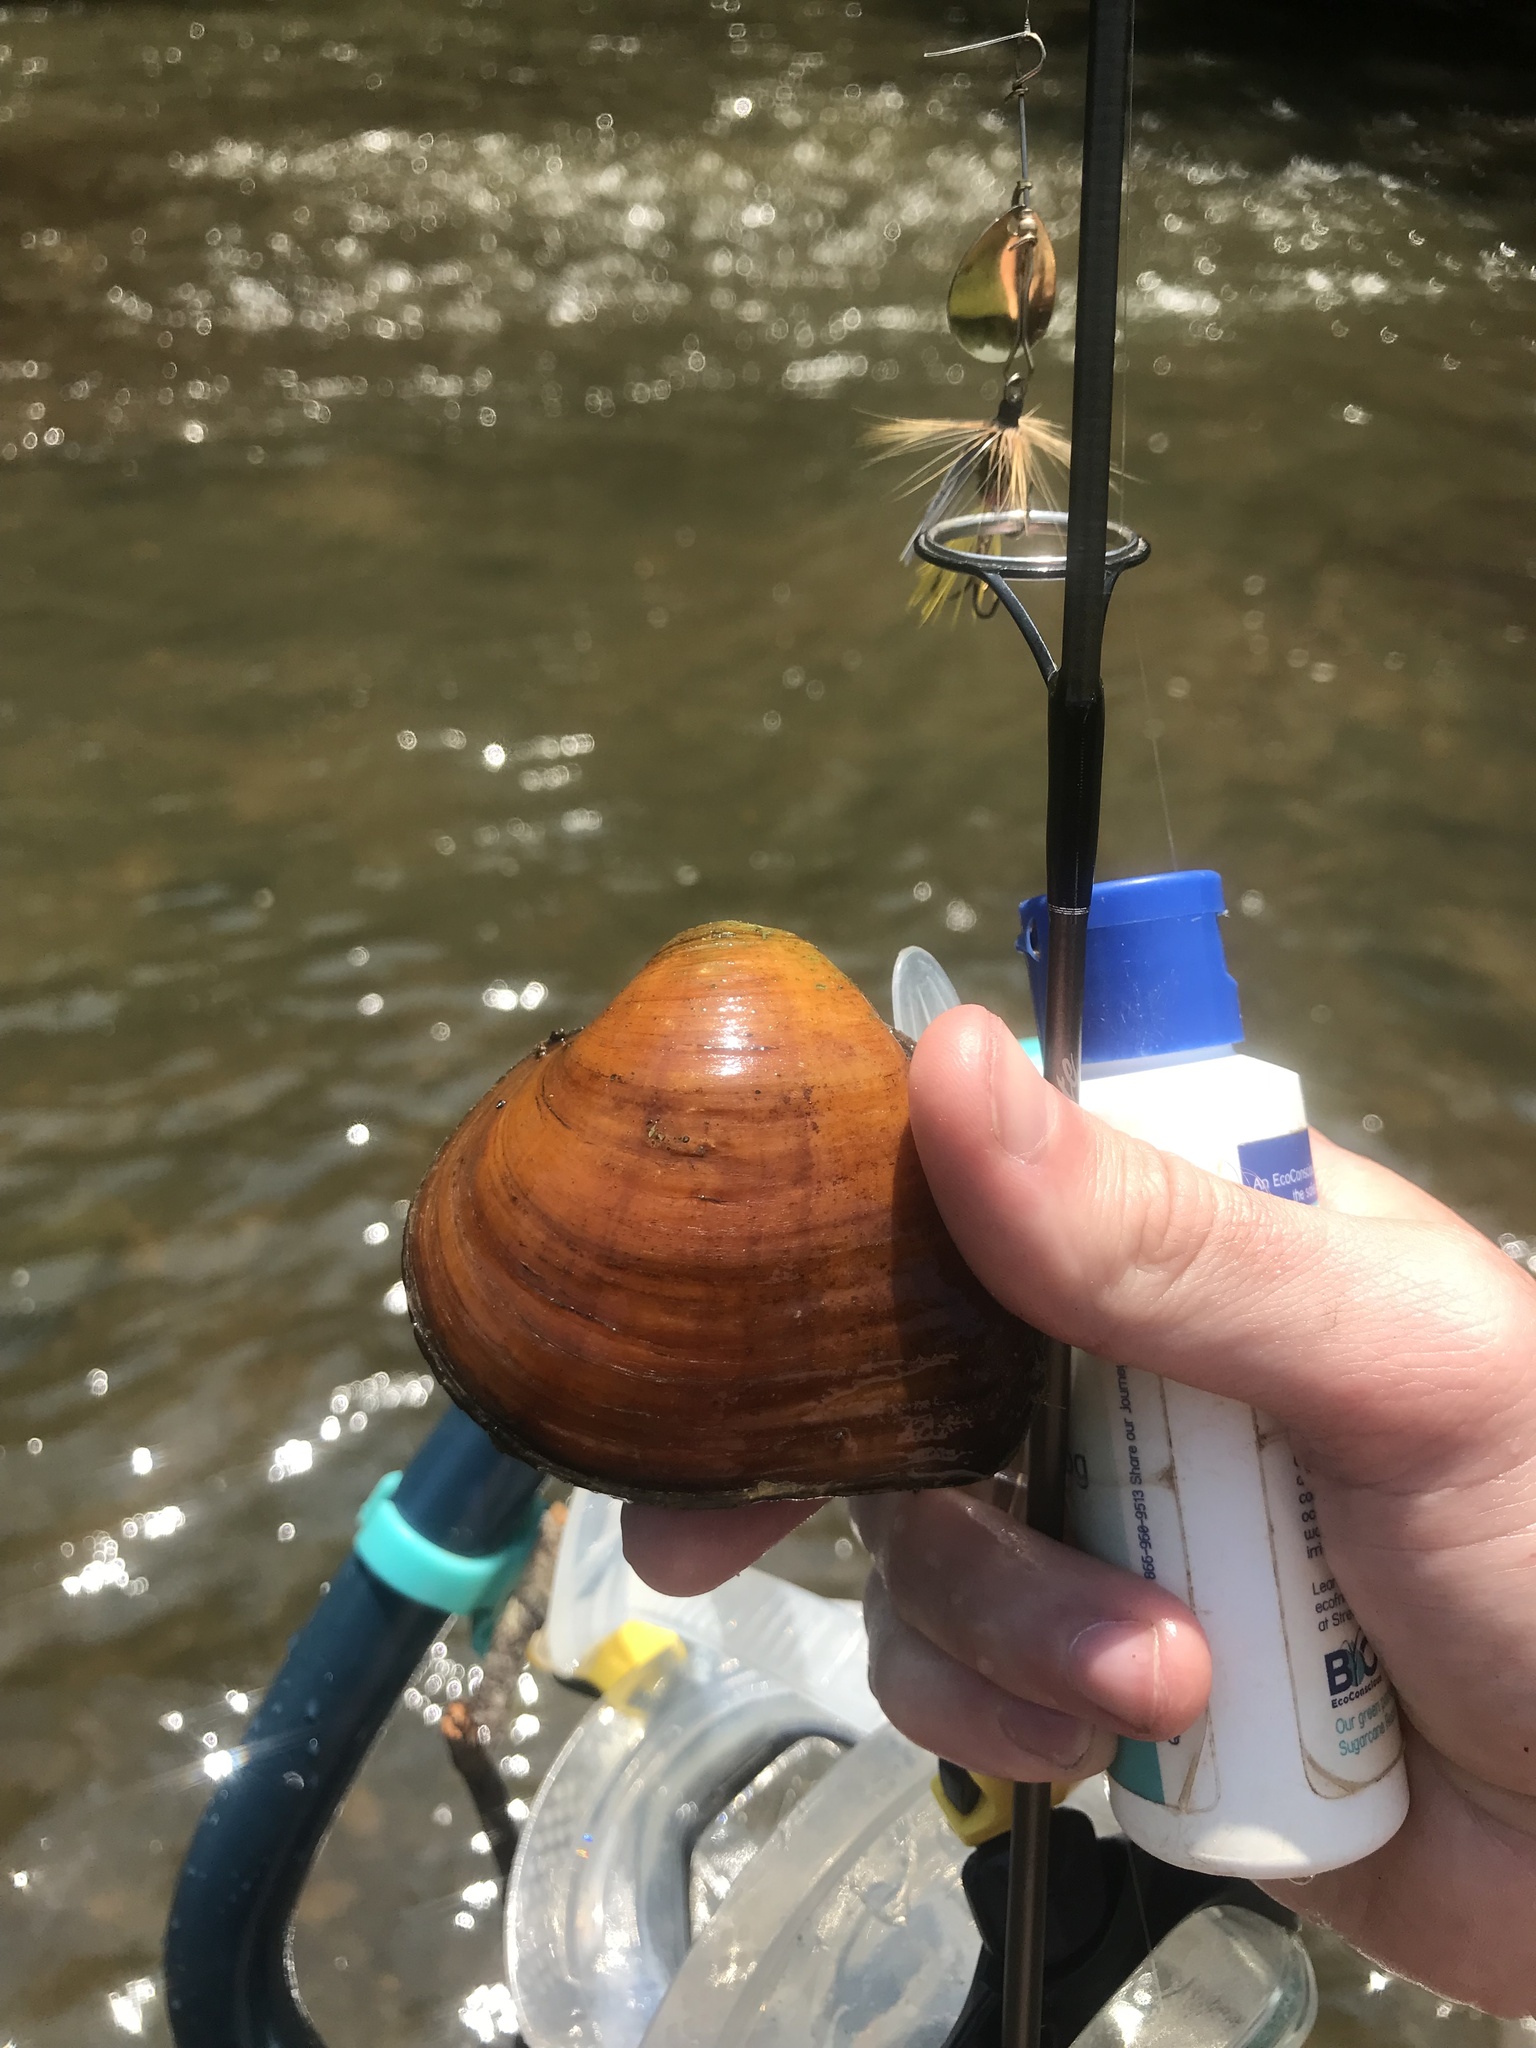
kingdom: Animalia
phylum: Mollusca
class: Bivalvia
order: Unionida
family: Unionidae
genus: Fusconaia
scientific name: Fusconaia cerina
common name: Gulf pigtoe
